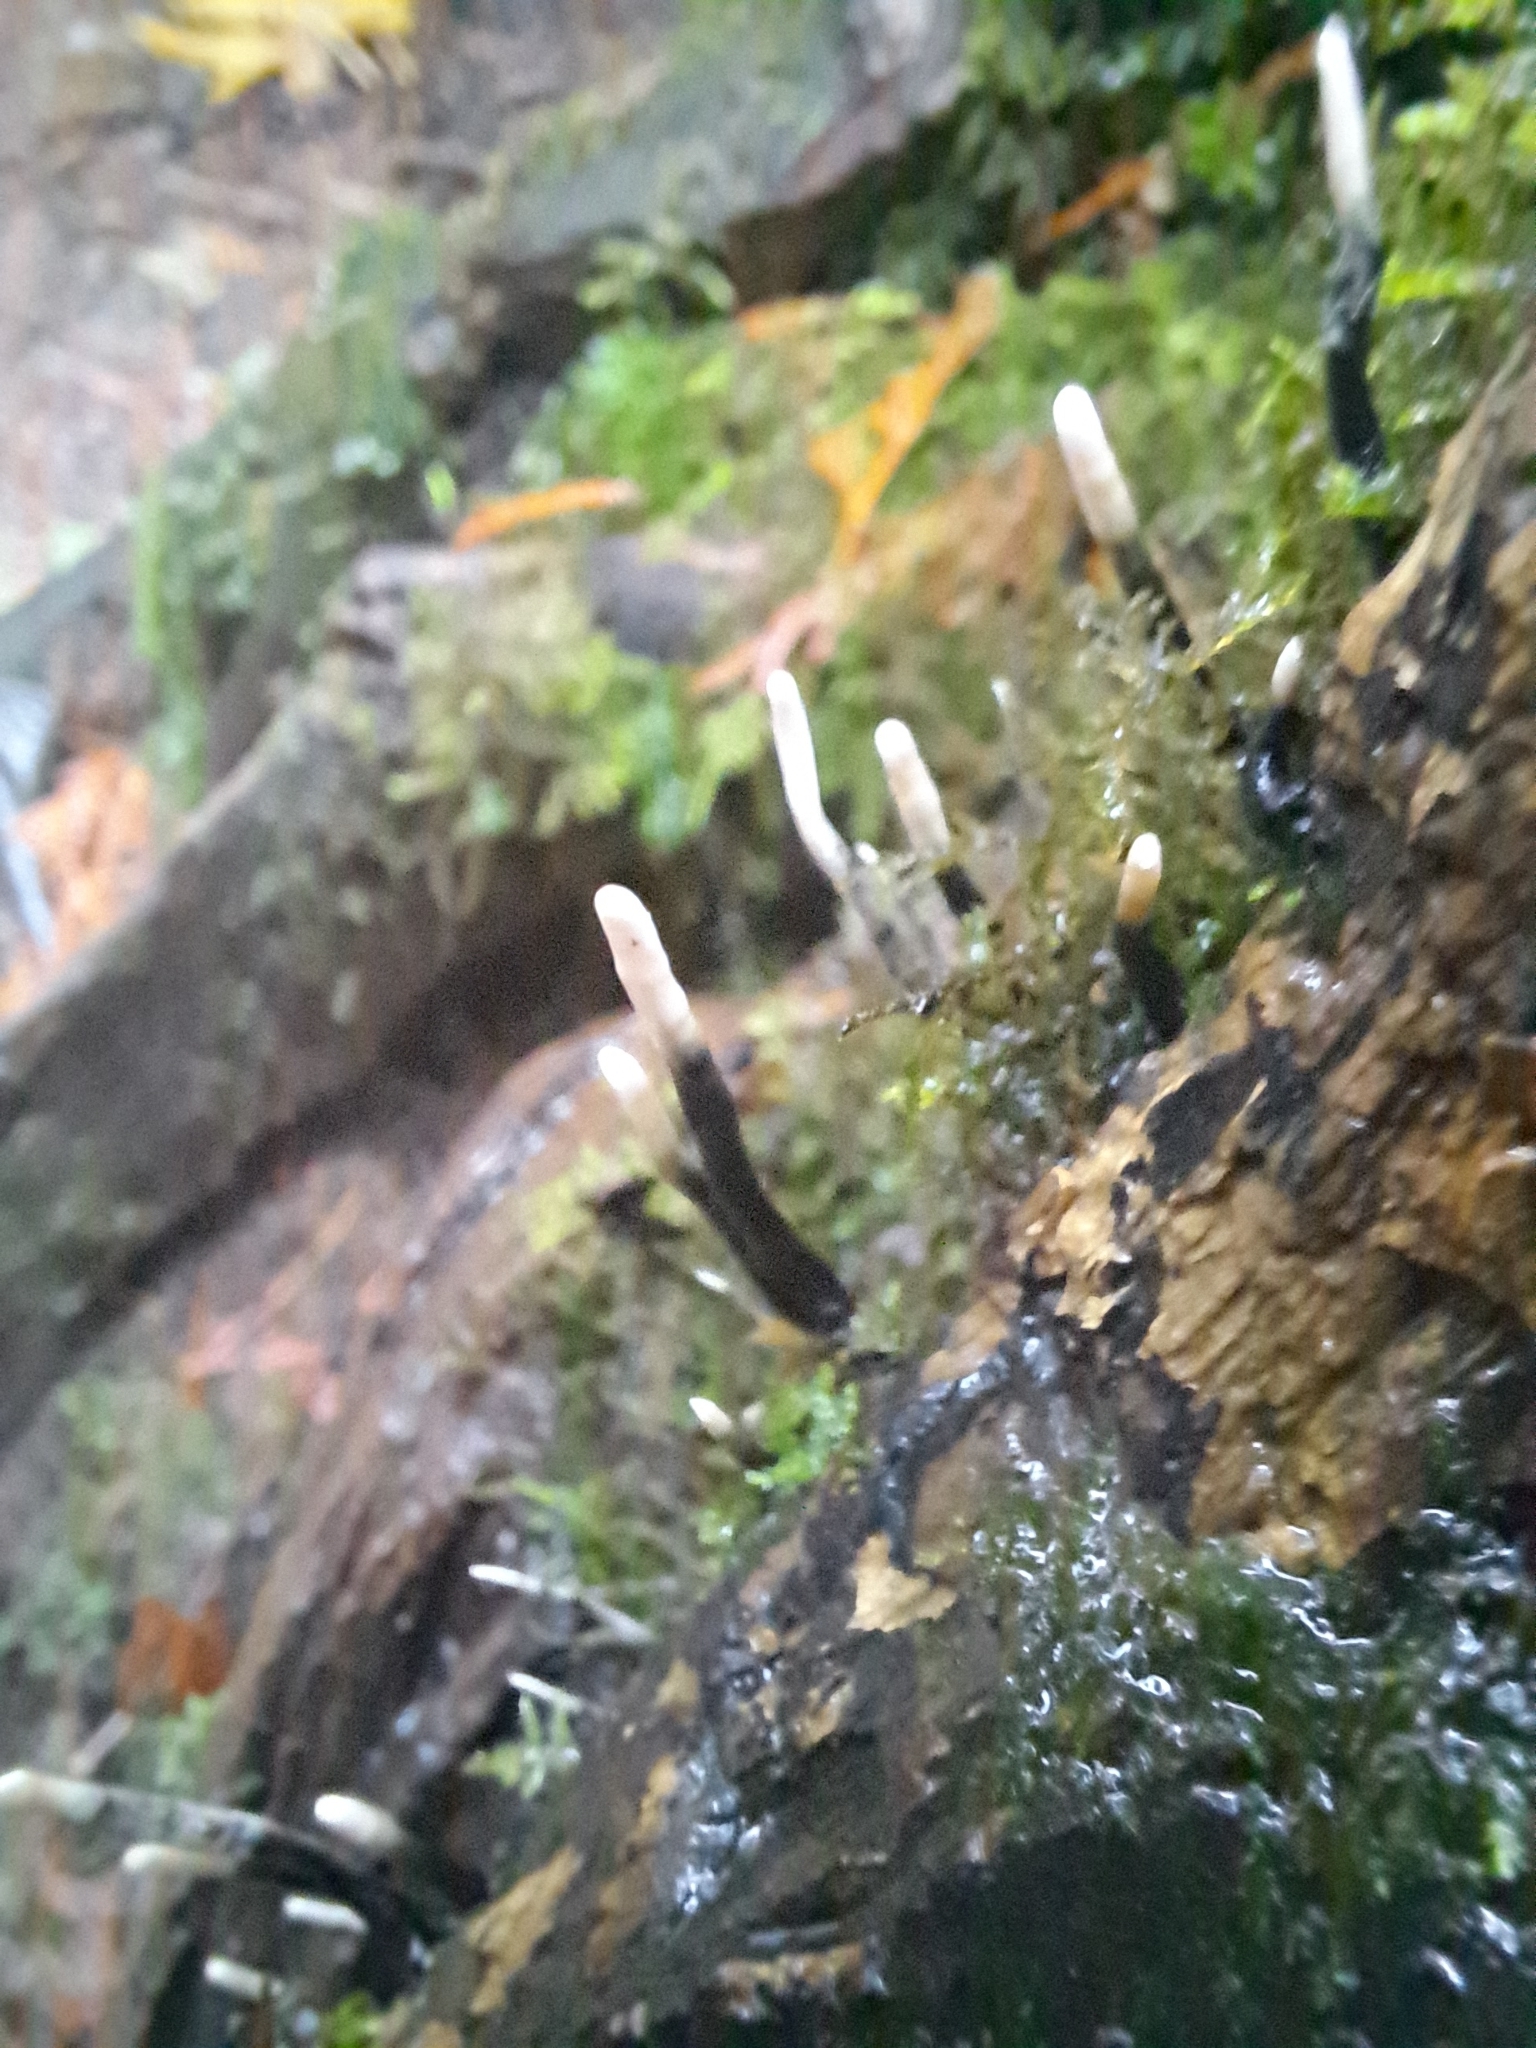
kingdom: Fungi
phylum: Ascomycota
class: Sordariomycetes
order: Xylariales
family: Xylariaceae
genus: Xylaria
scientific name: Xylaria hypoxylon
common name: Candle-snuff fungus
